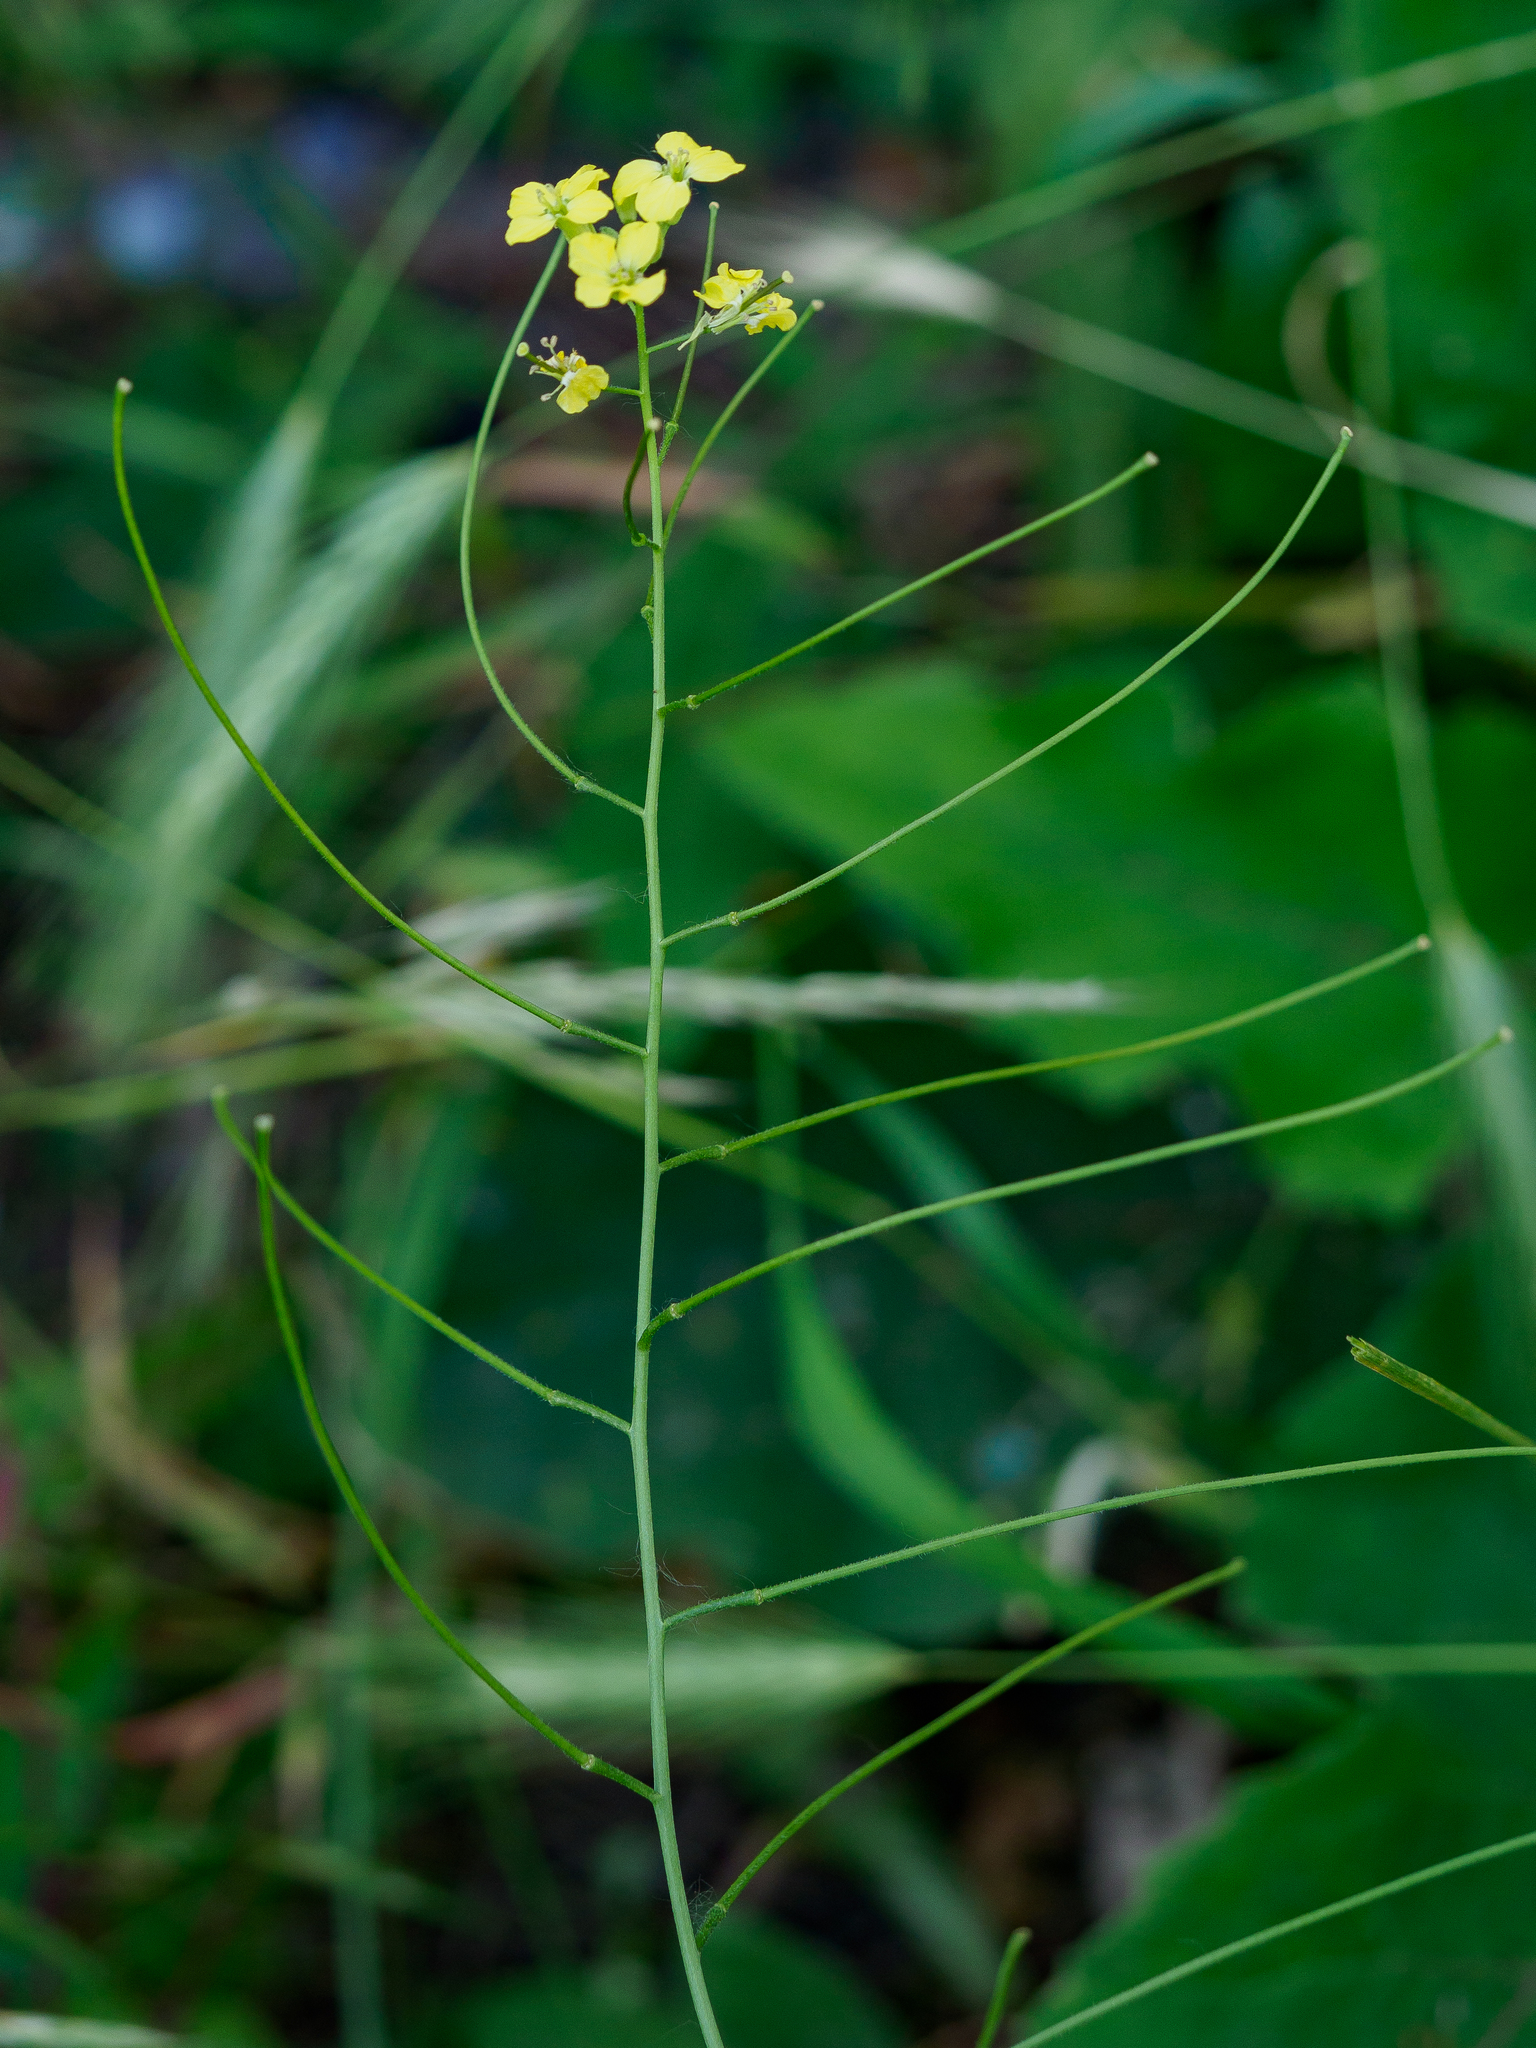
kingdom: Plantae
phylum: Tracheophyta
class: Magnoliopsida
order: Brassicales
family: Brassicaceae
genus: Sisymbrium
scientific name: Sisymbrium orientale
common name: Eastern rocket
